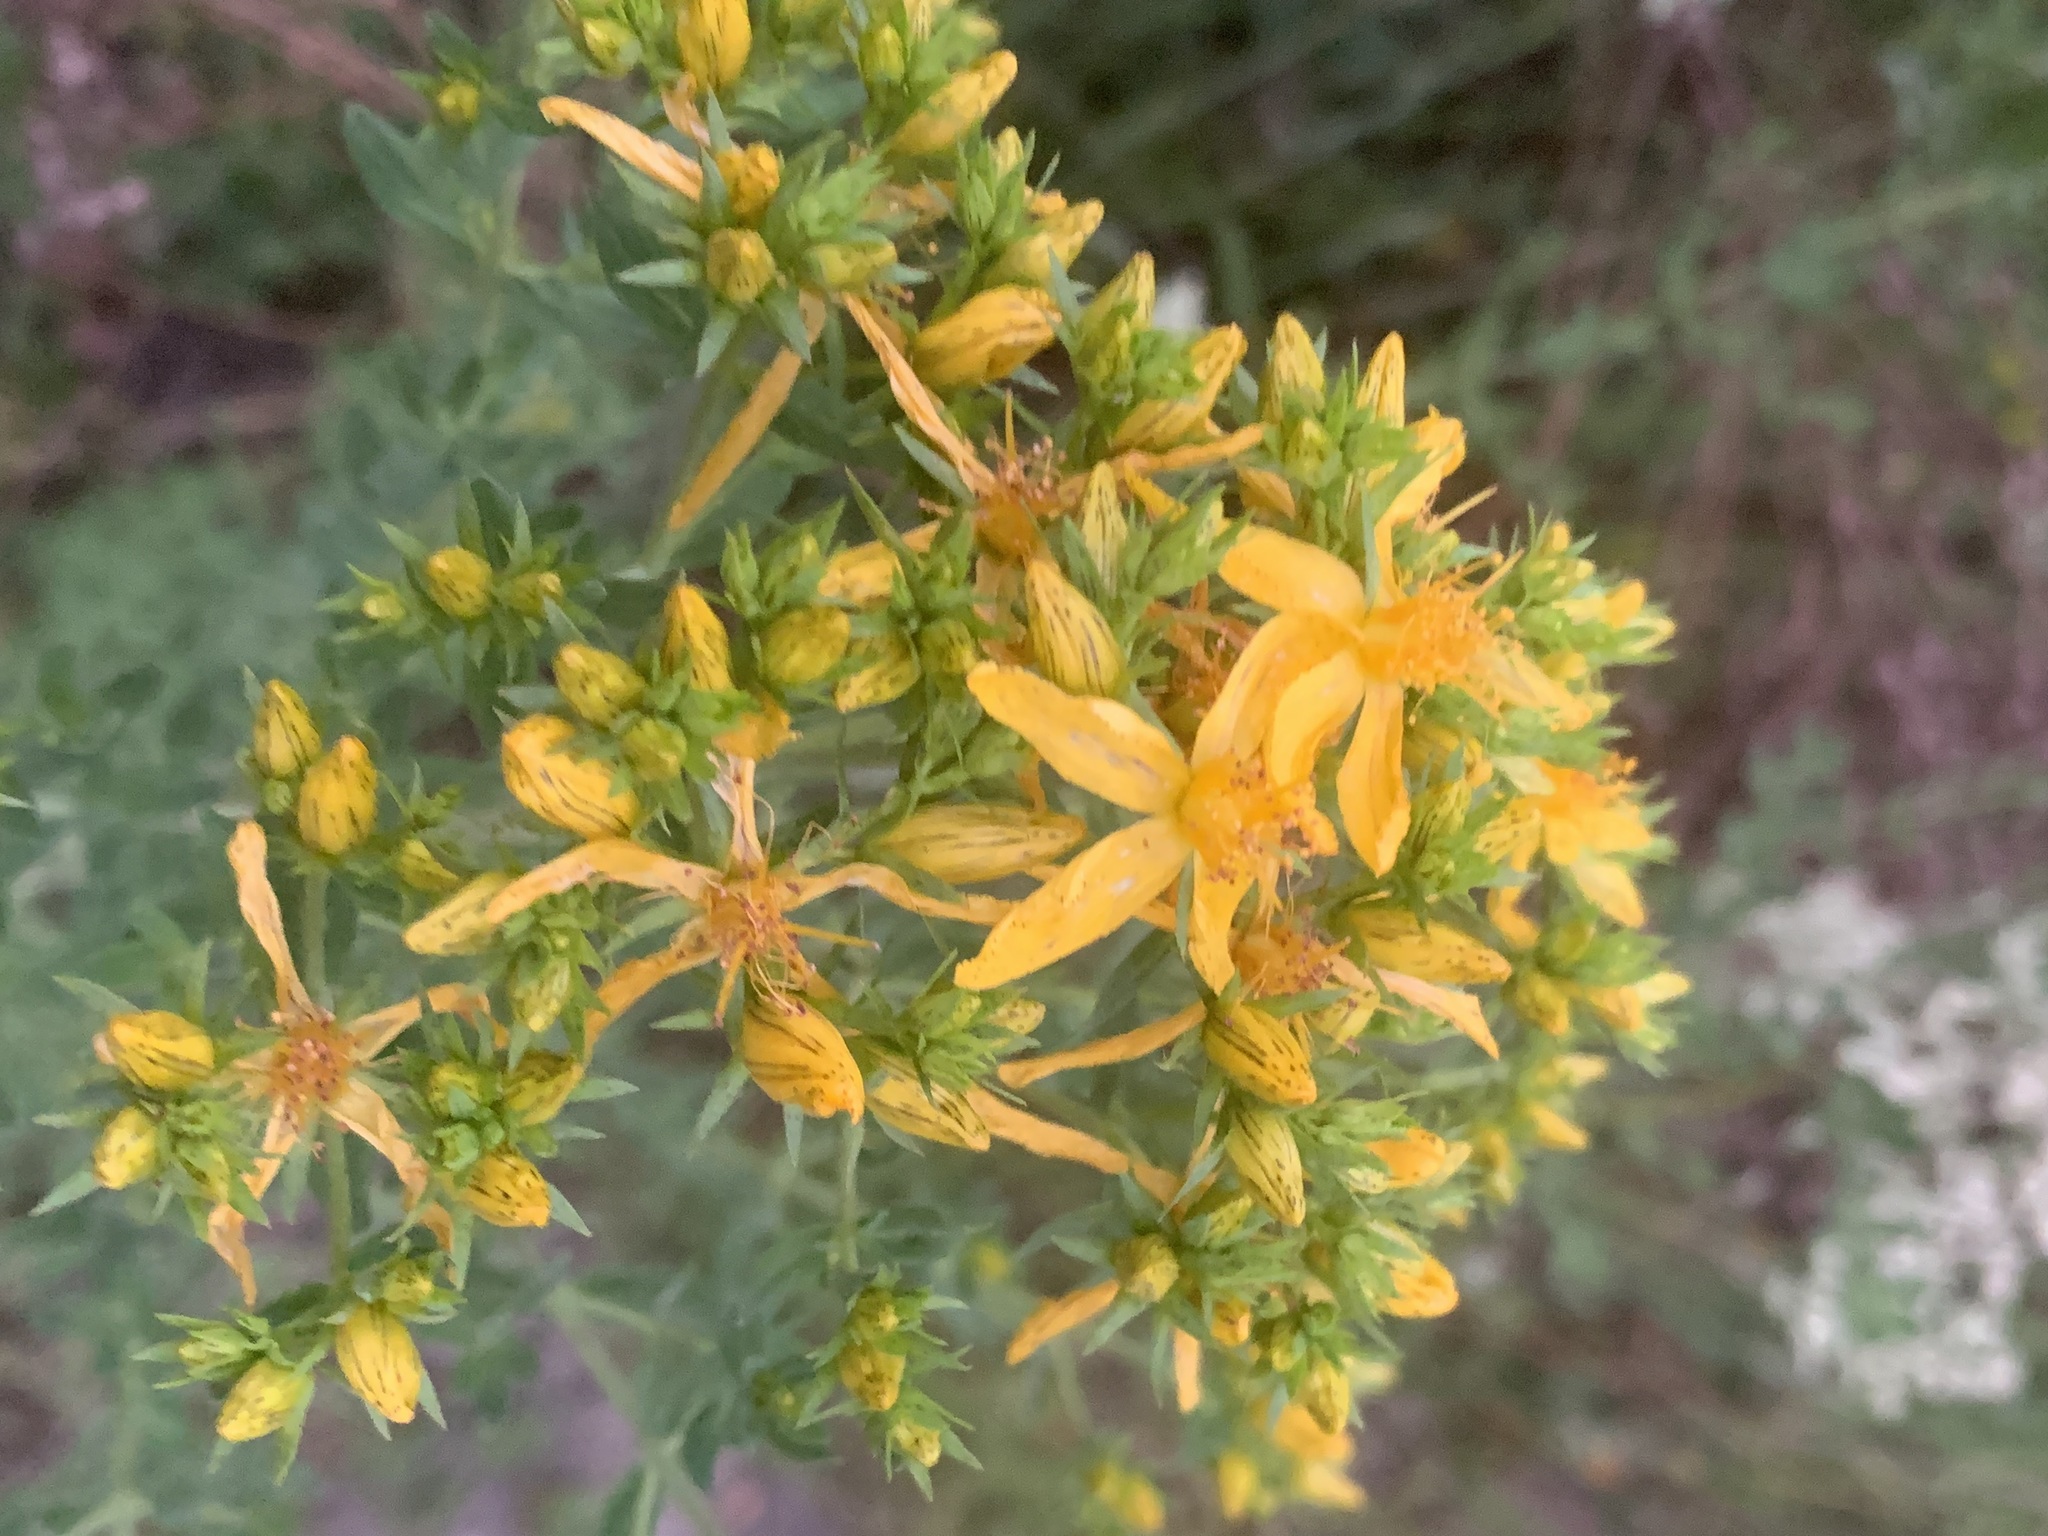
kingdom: Plantae
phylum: Tracheophyta
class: Magnoliopsida
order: Malpighiales
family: Hypericaceae
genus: Hypericum
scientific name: Hypericum perforatum
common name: Common st. johnswort
